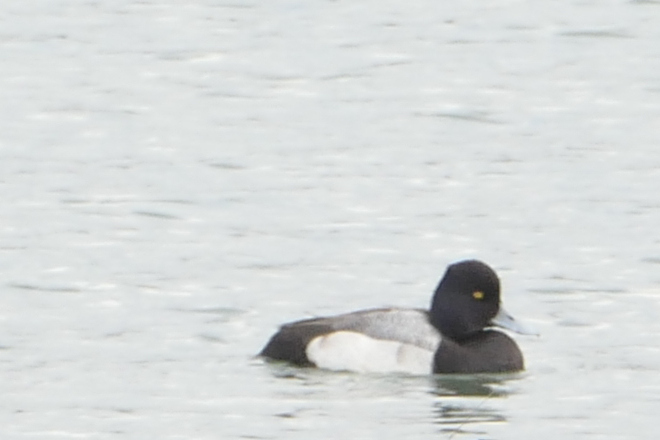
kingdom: Animalia
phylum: Chordata
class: Aves
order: Anseriformes
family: Anatidae
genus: Aythya
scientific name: Aythya affinis
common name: Lesser scaup
